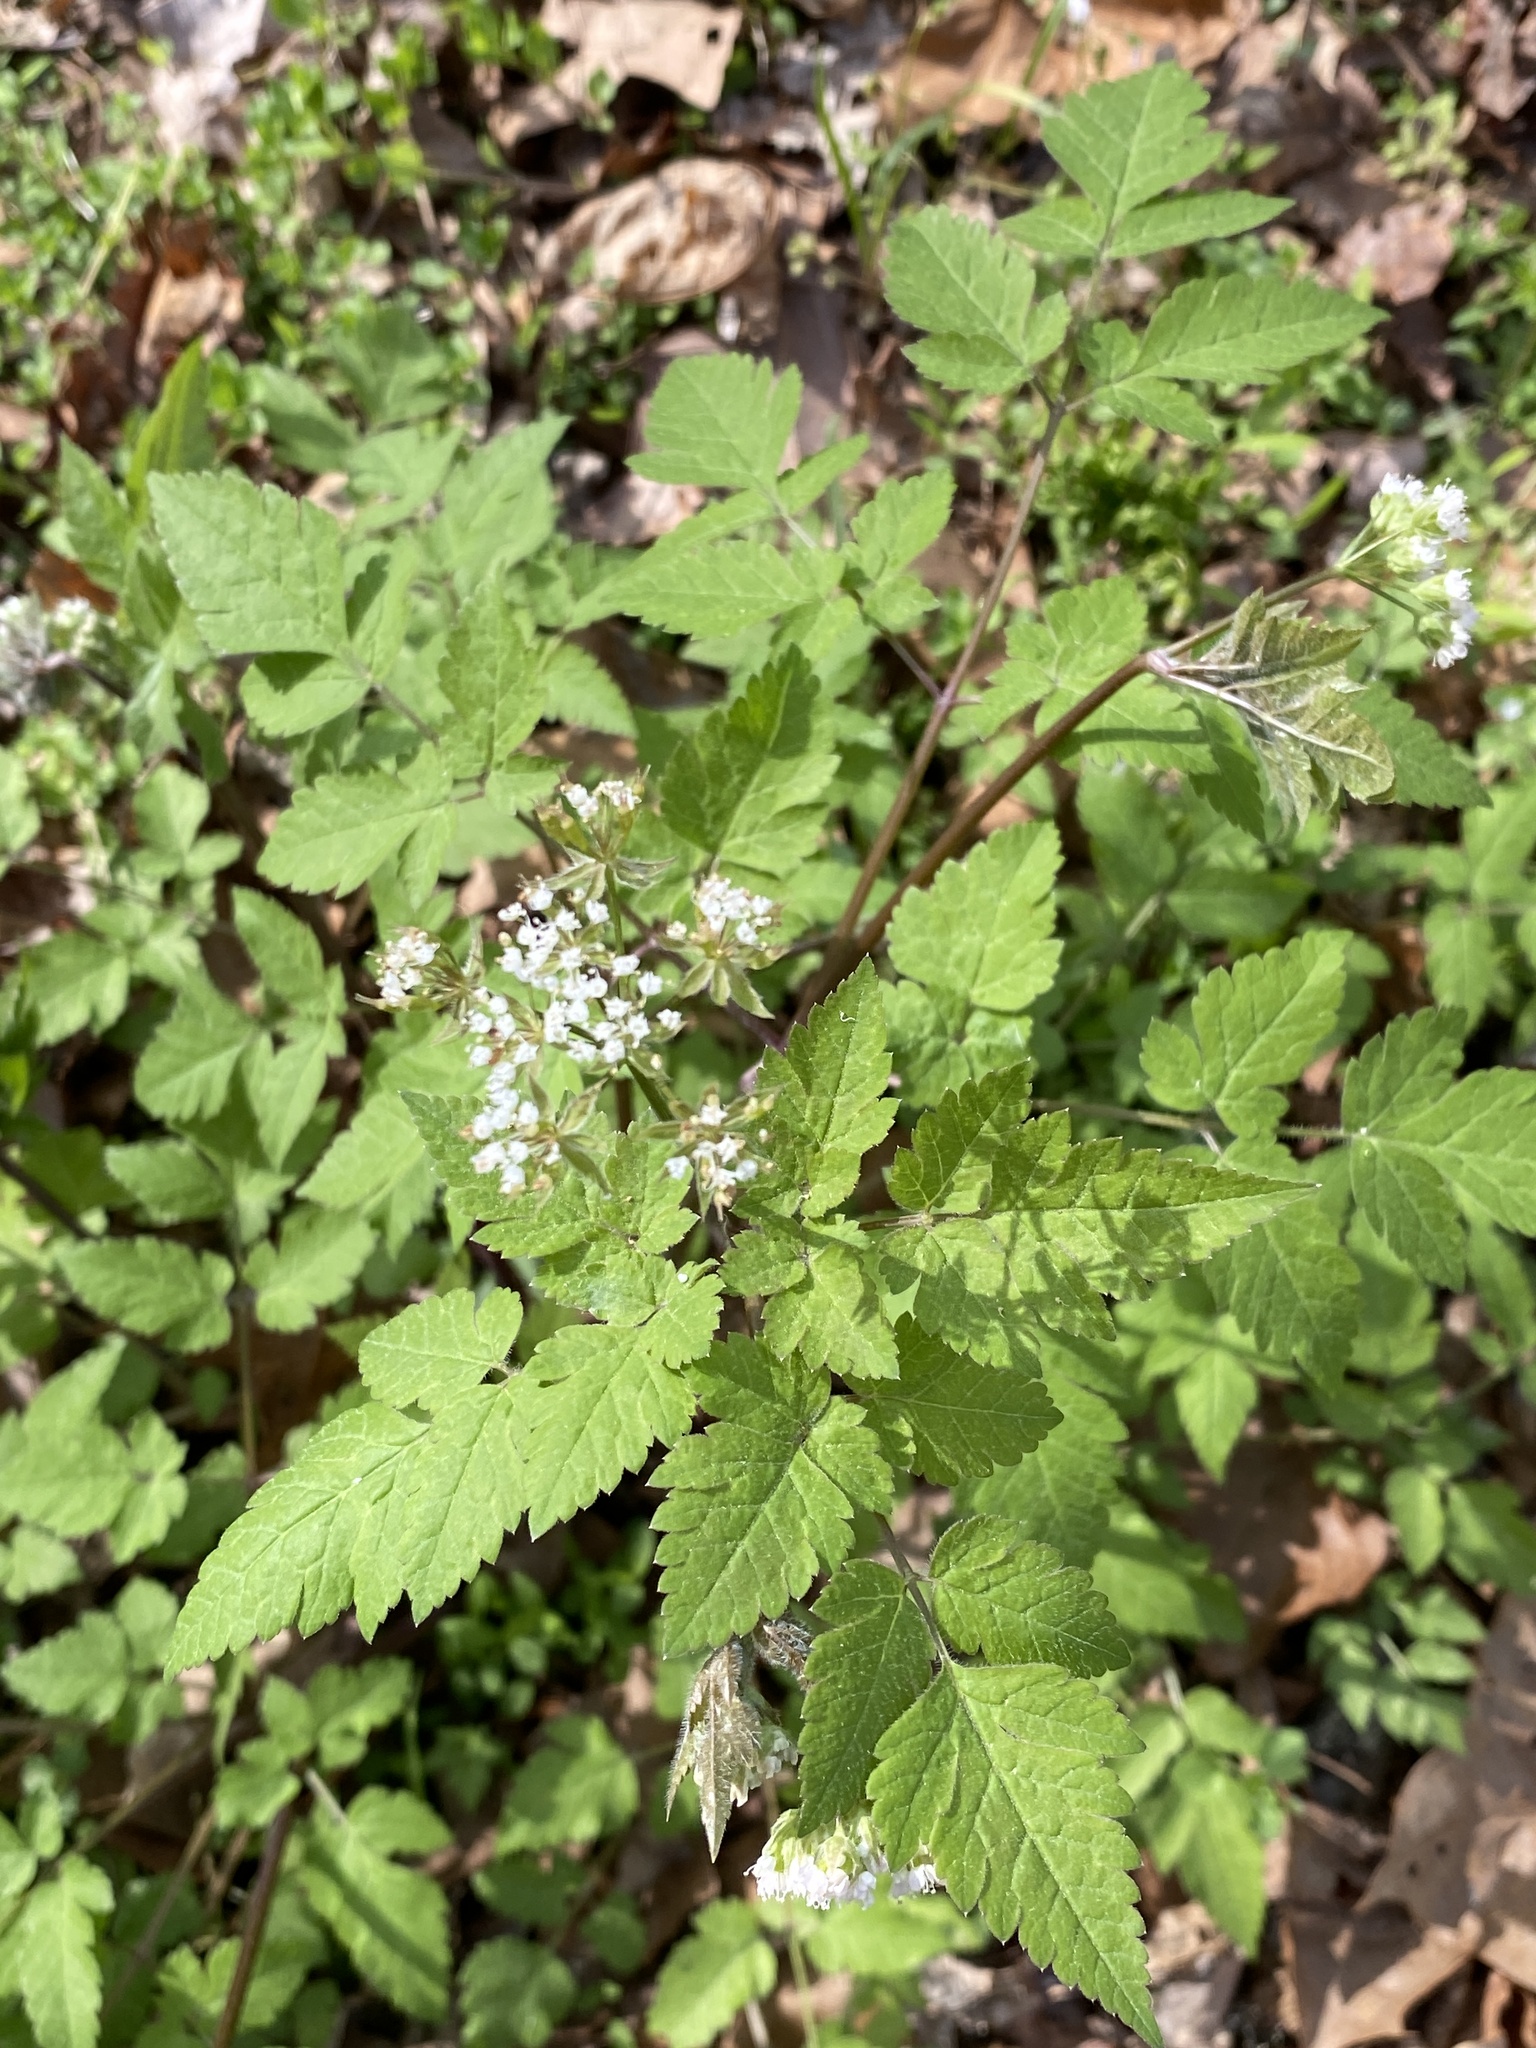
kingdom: Plantae
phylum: Tracheophyta
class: Magnoliopsida
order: Apiales
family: Apiaceae
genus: Osmorhiza
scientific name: Osmorhiza longistylis
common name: Smooth sweet cicely
